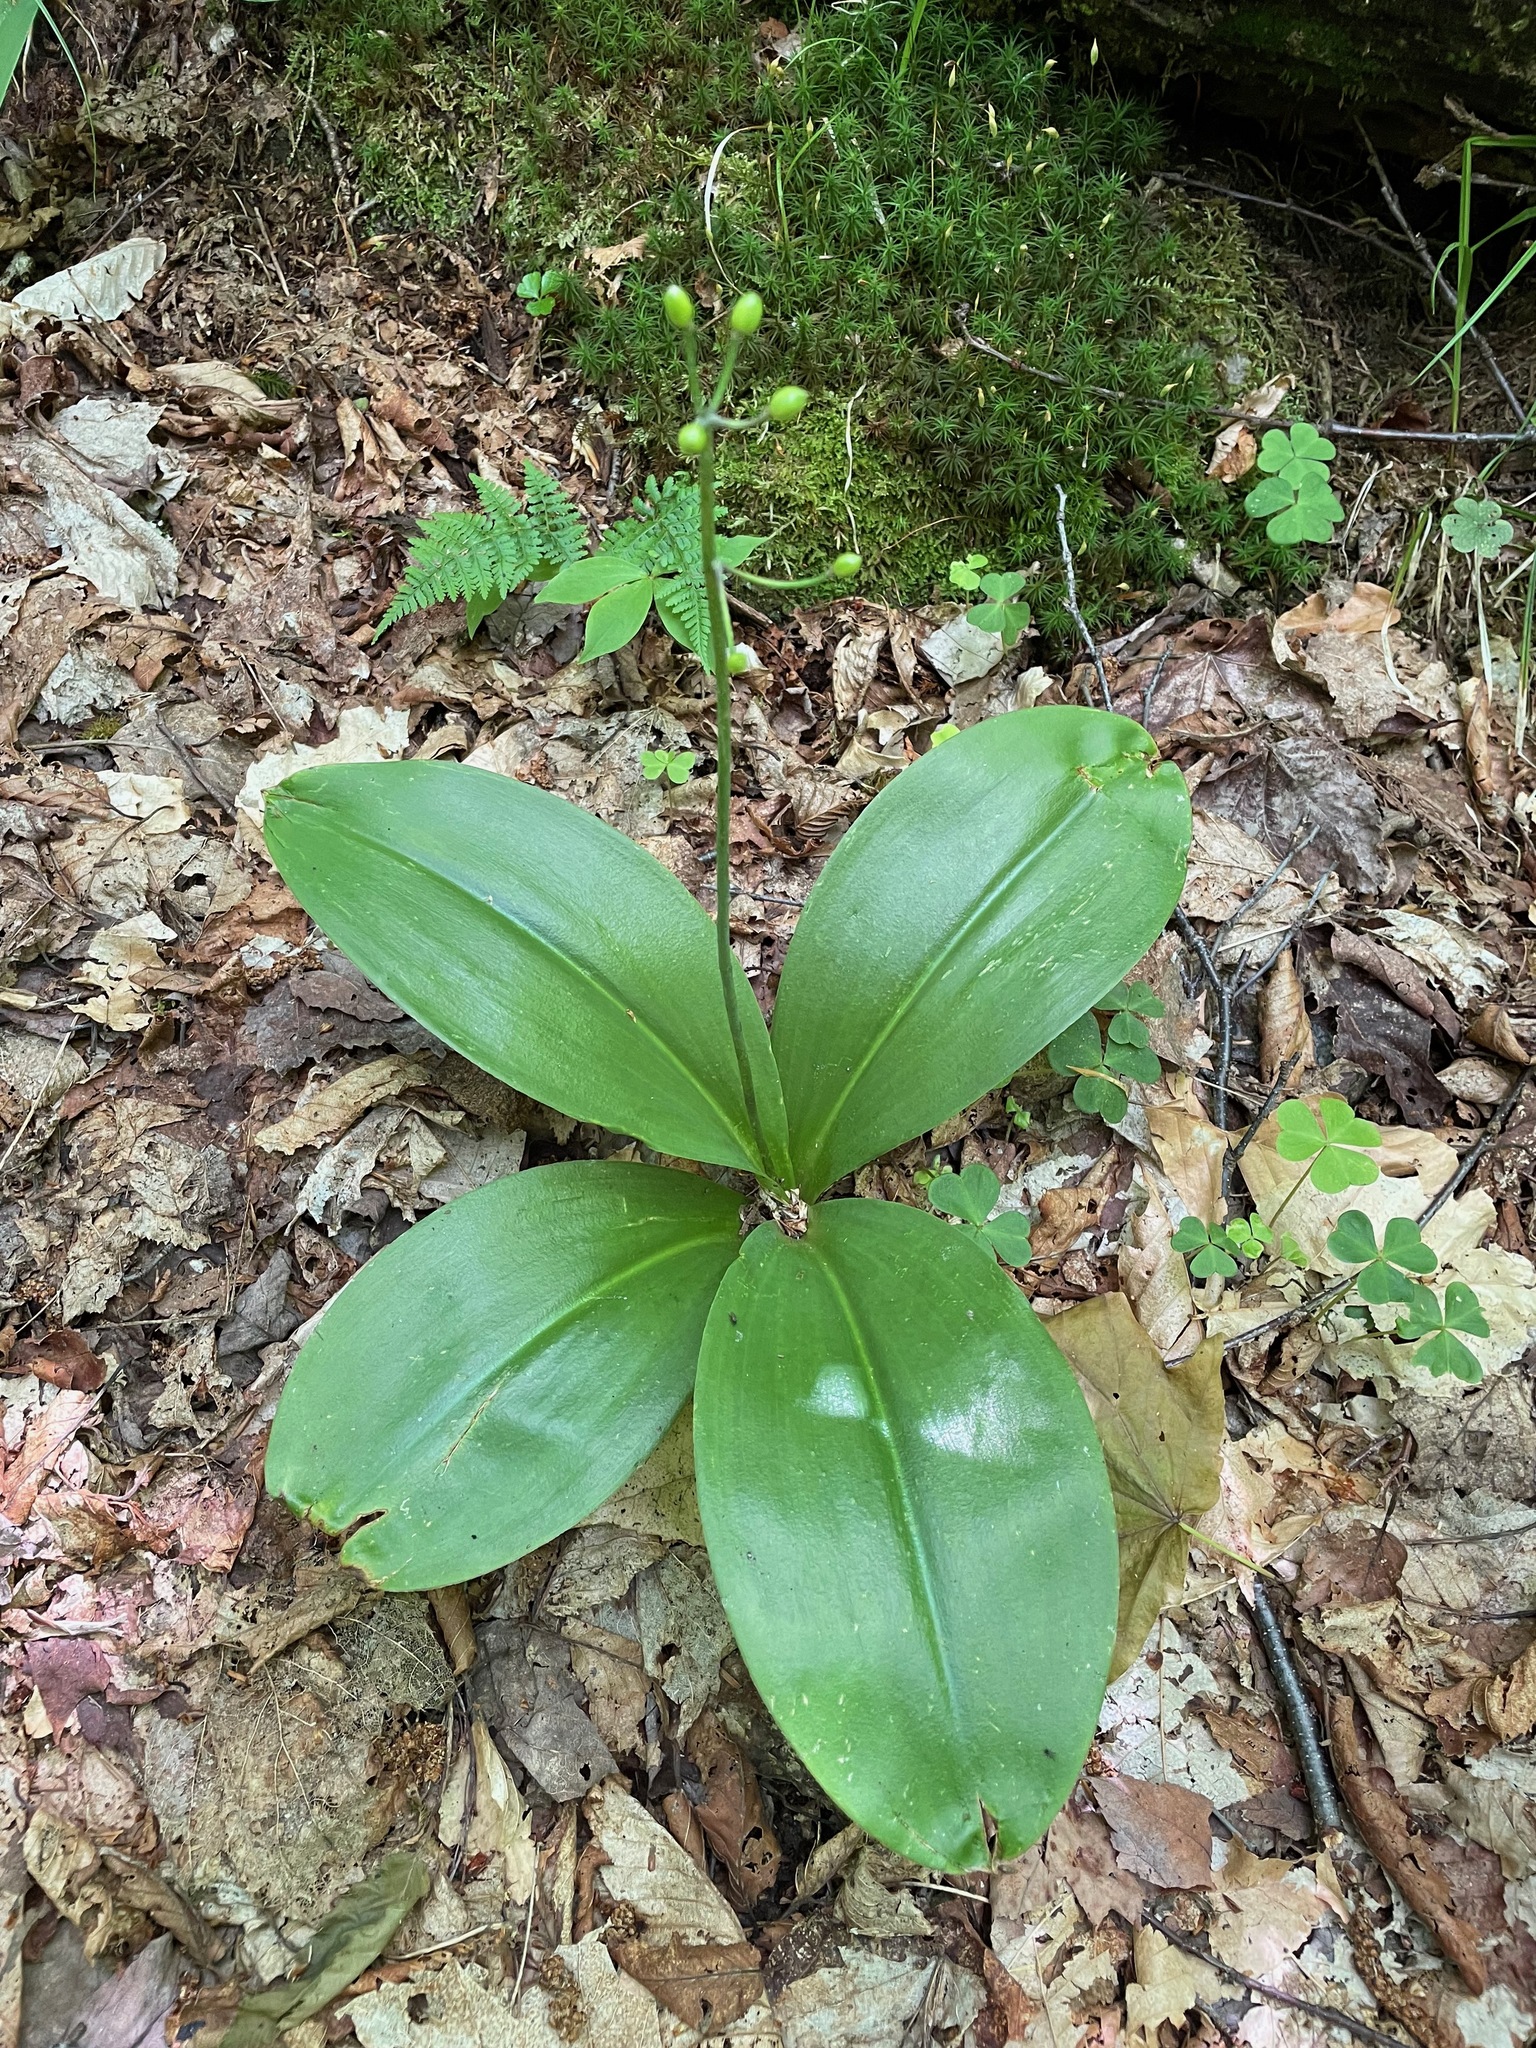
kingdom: Plantae
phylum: Tracheophyta
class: Liliopsida
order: Liliales
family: Liliaceae
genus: Clintonia
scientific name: Clintonia borealis
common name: Yellow clintonia
